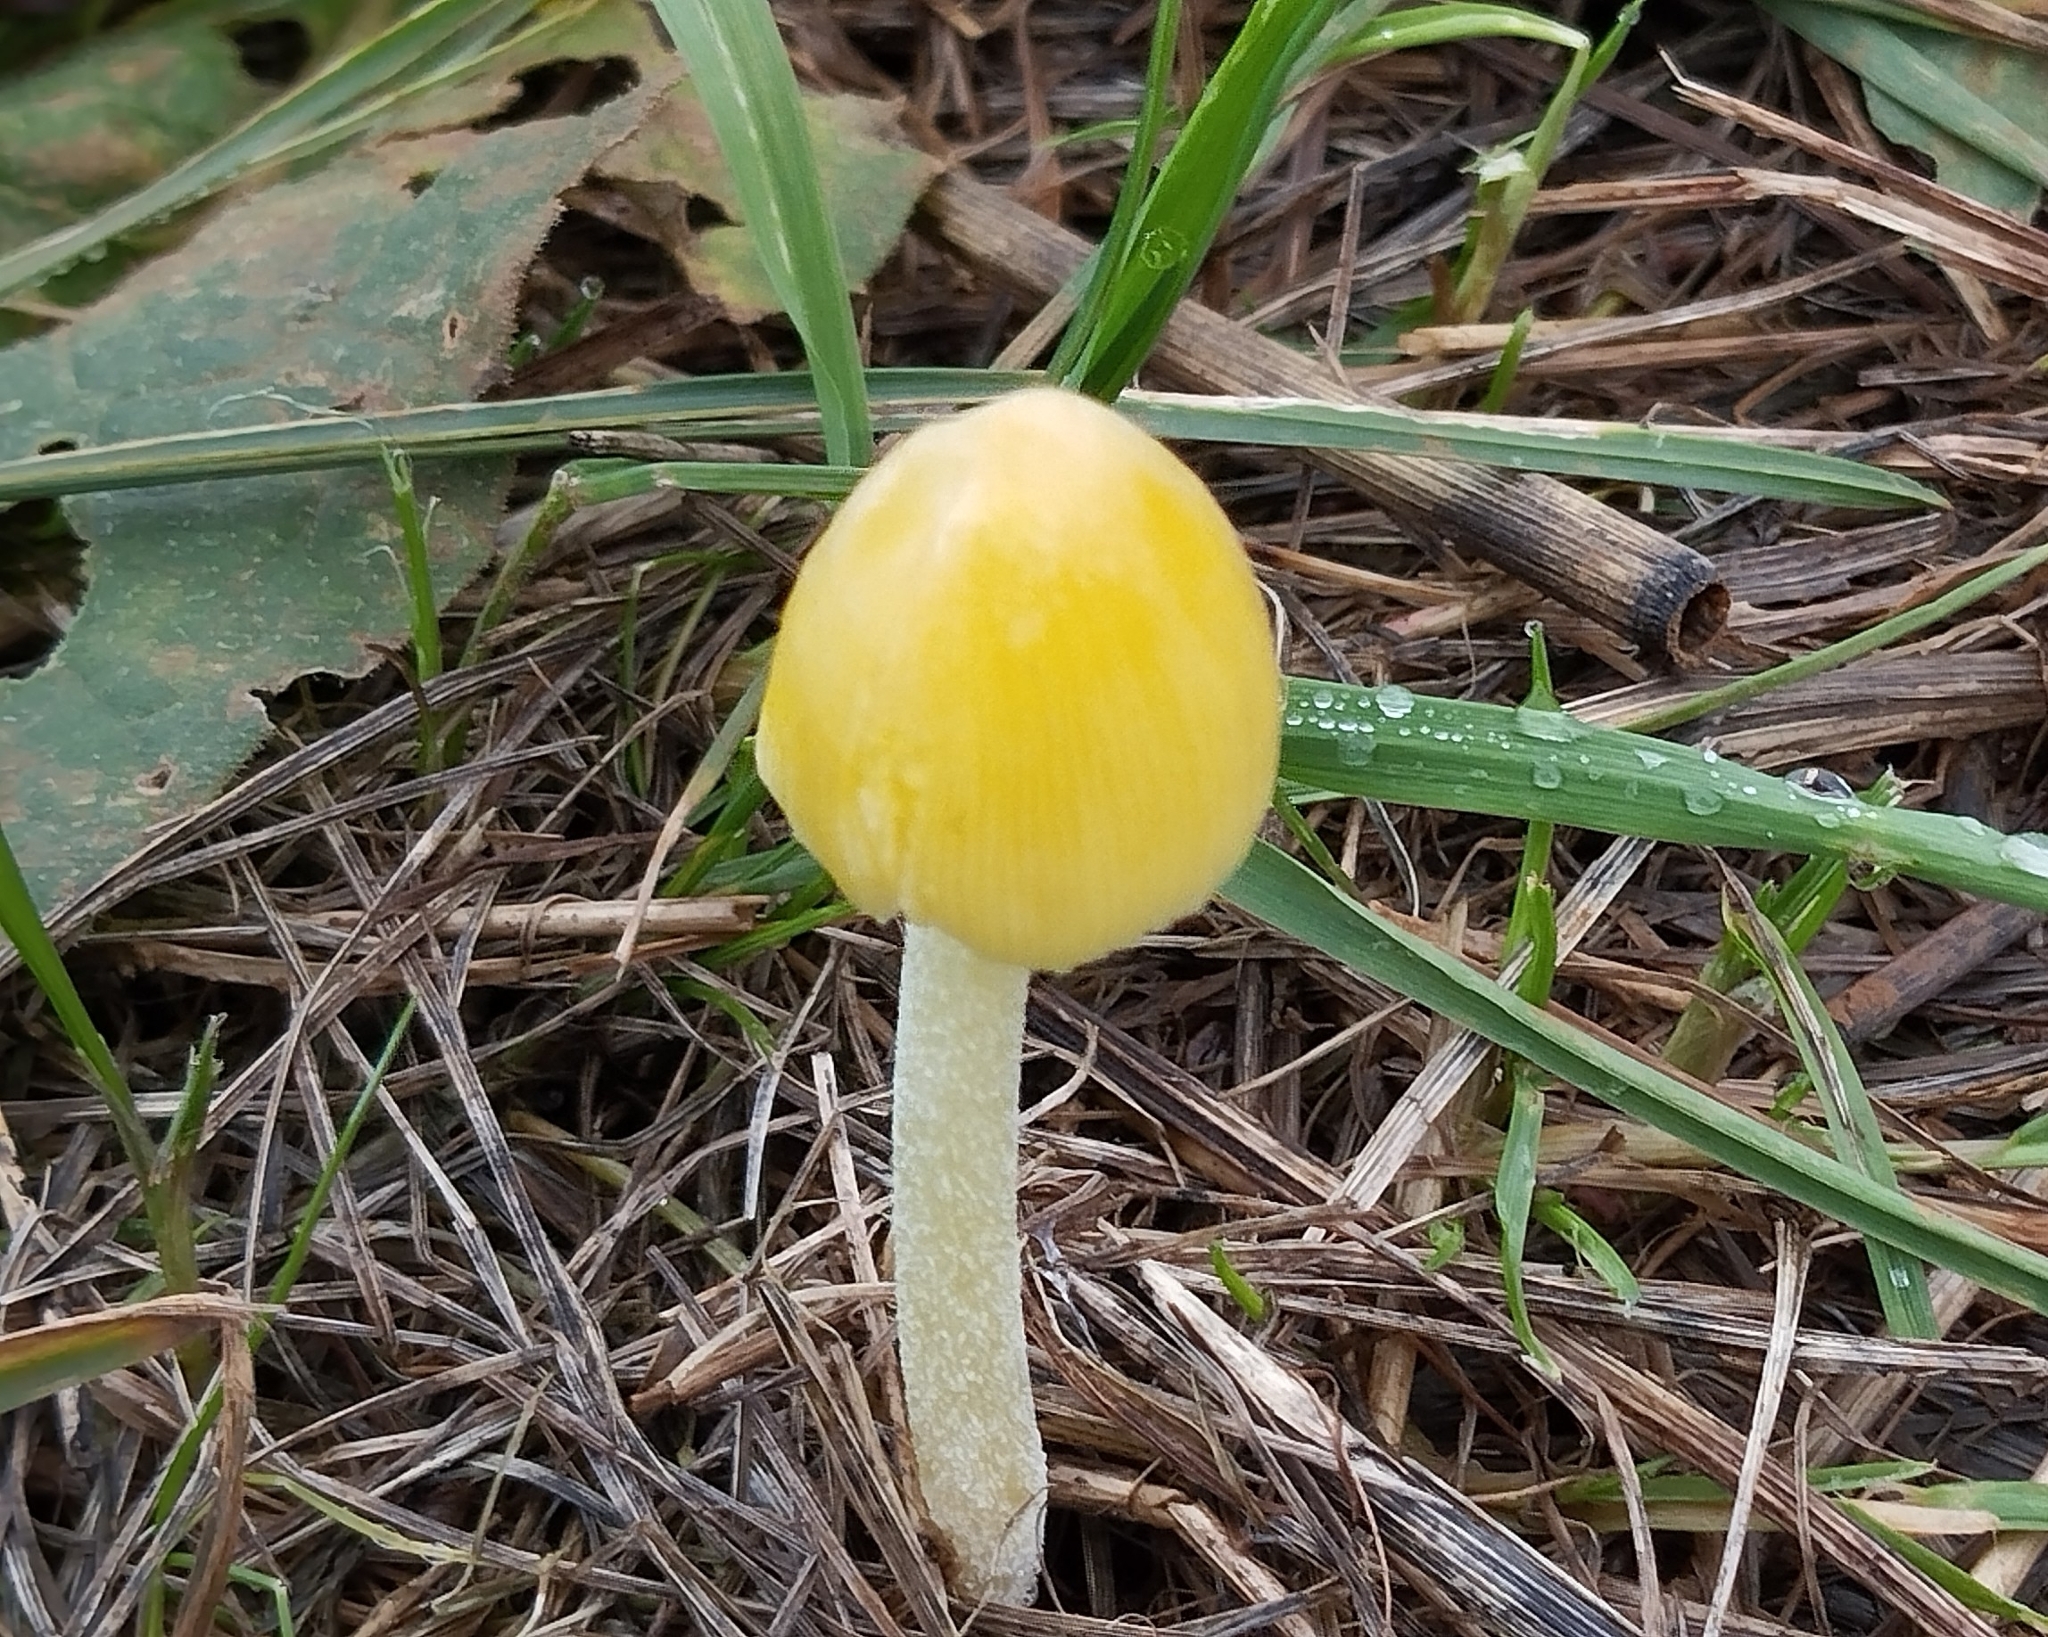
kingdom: Fungi
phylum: Basidiomycota
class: Agaricomycetes
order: Agaricales
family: Bolbitiaceae
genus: Bolbitius
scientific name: Bolbitius titubans
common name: Yellow fieldcap
